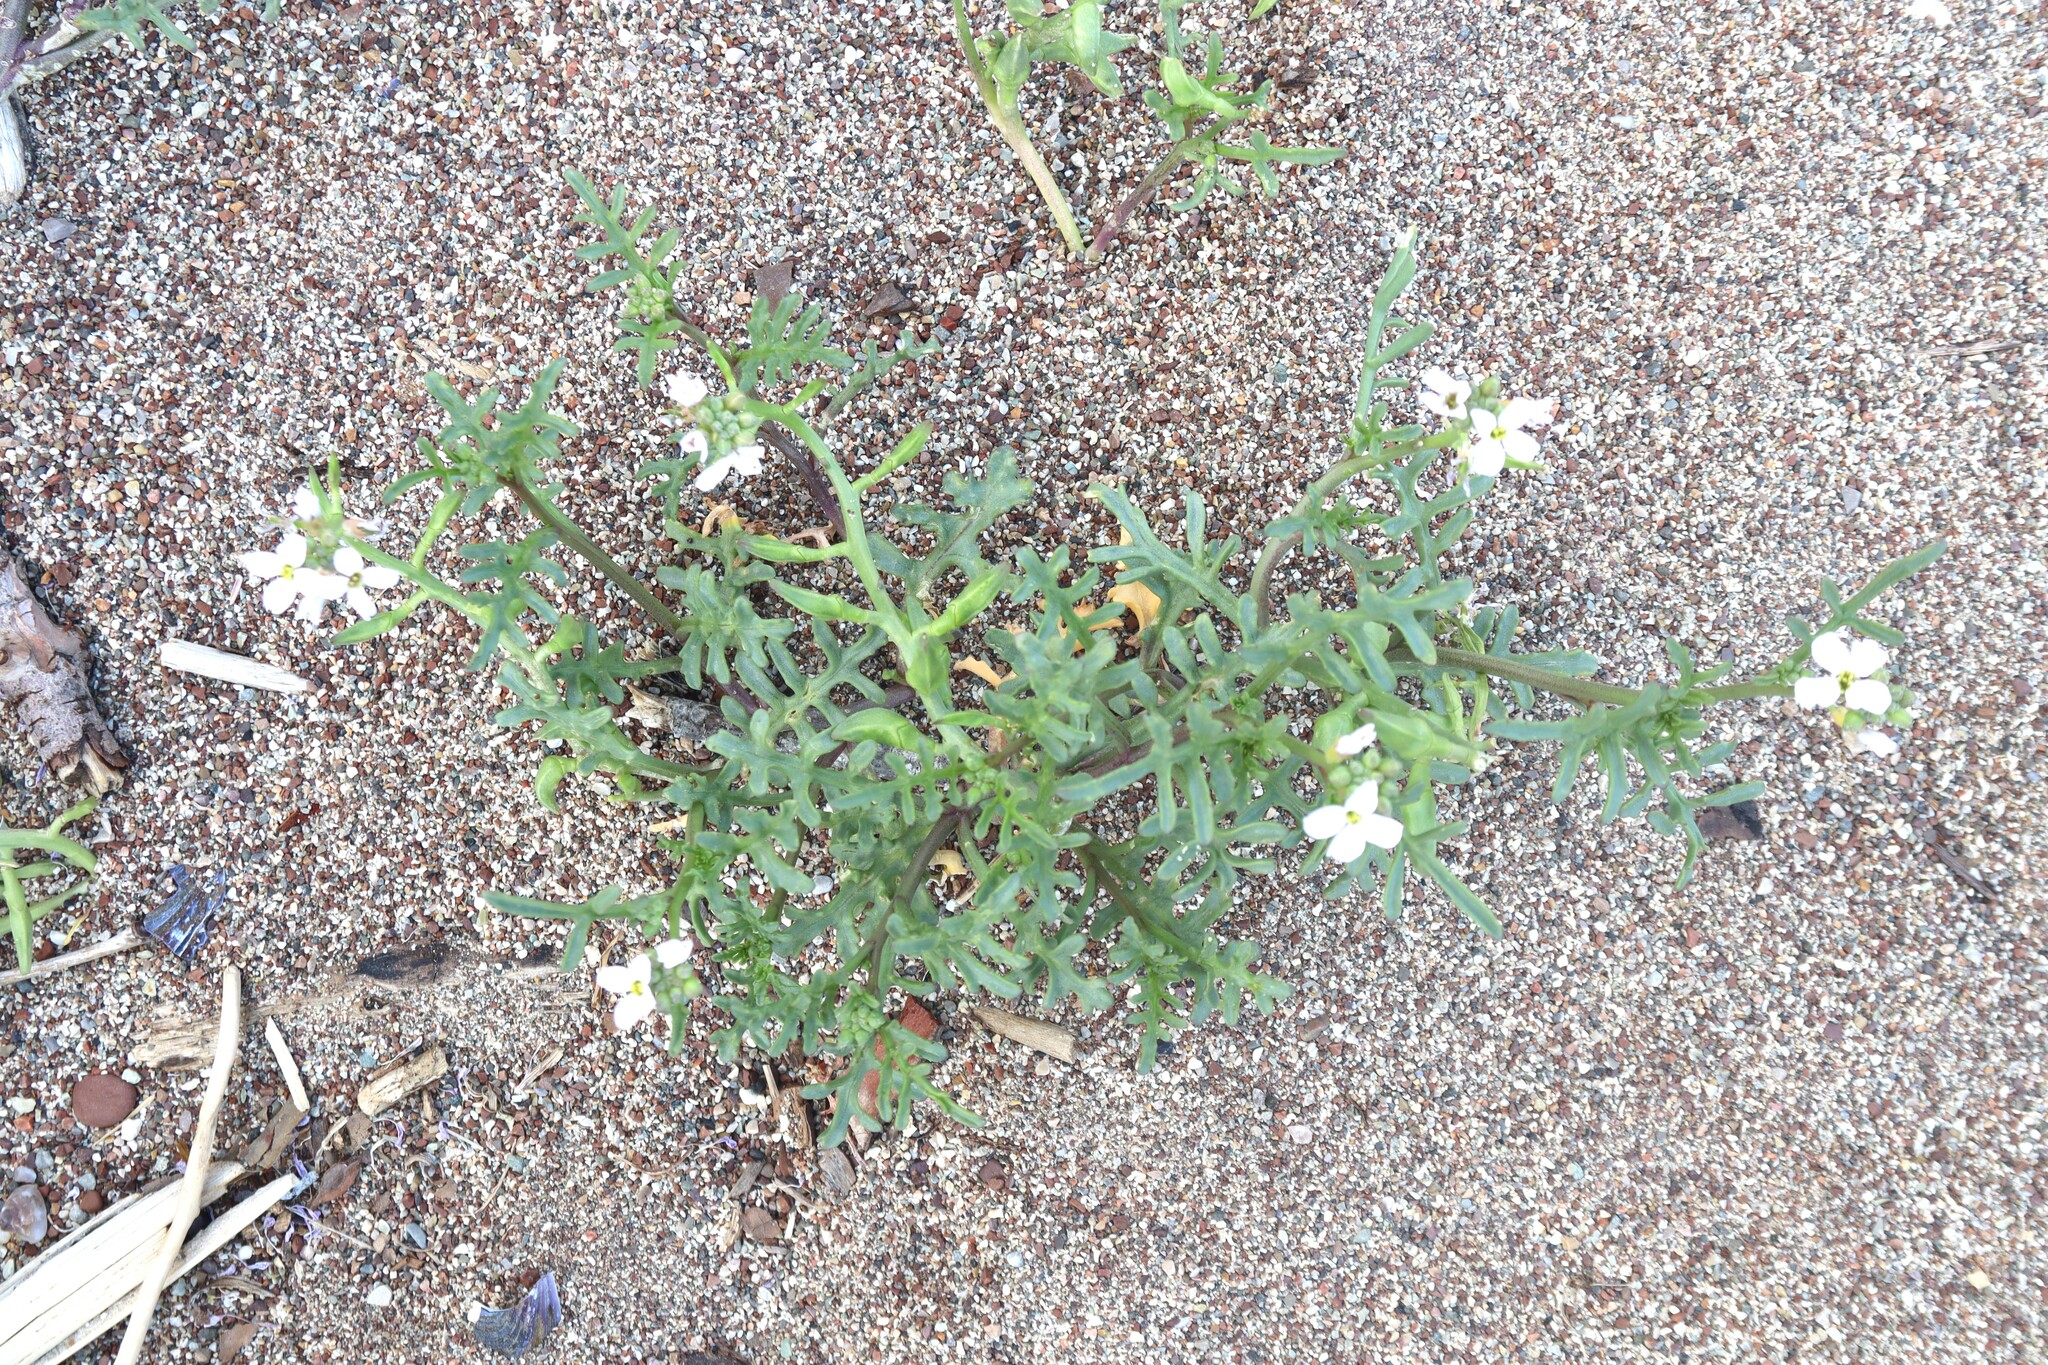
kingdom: Plantae
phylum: Tracheophyta
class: Magnoliopsida
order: Brassicales
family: Brassicaceae
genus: Cakile
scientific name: Cakile maritima
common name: Sea rocket
